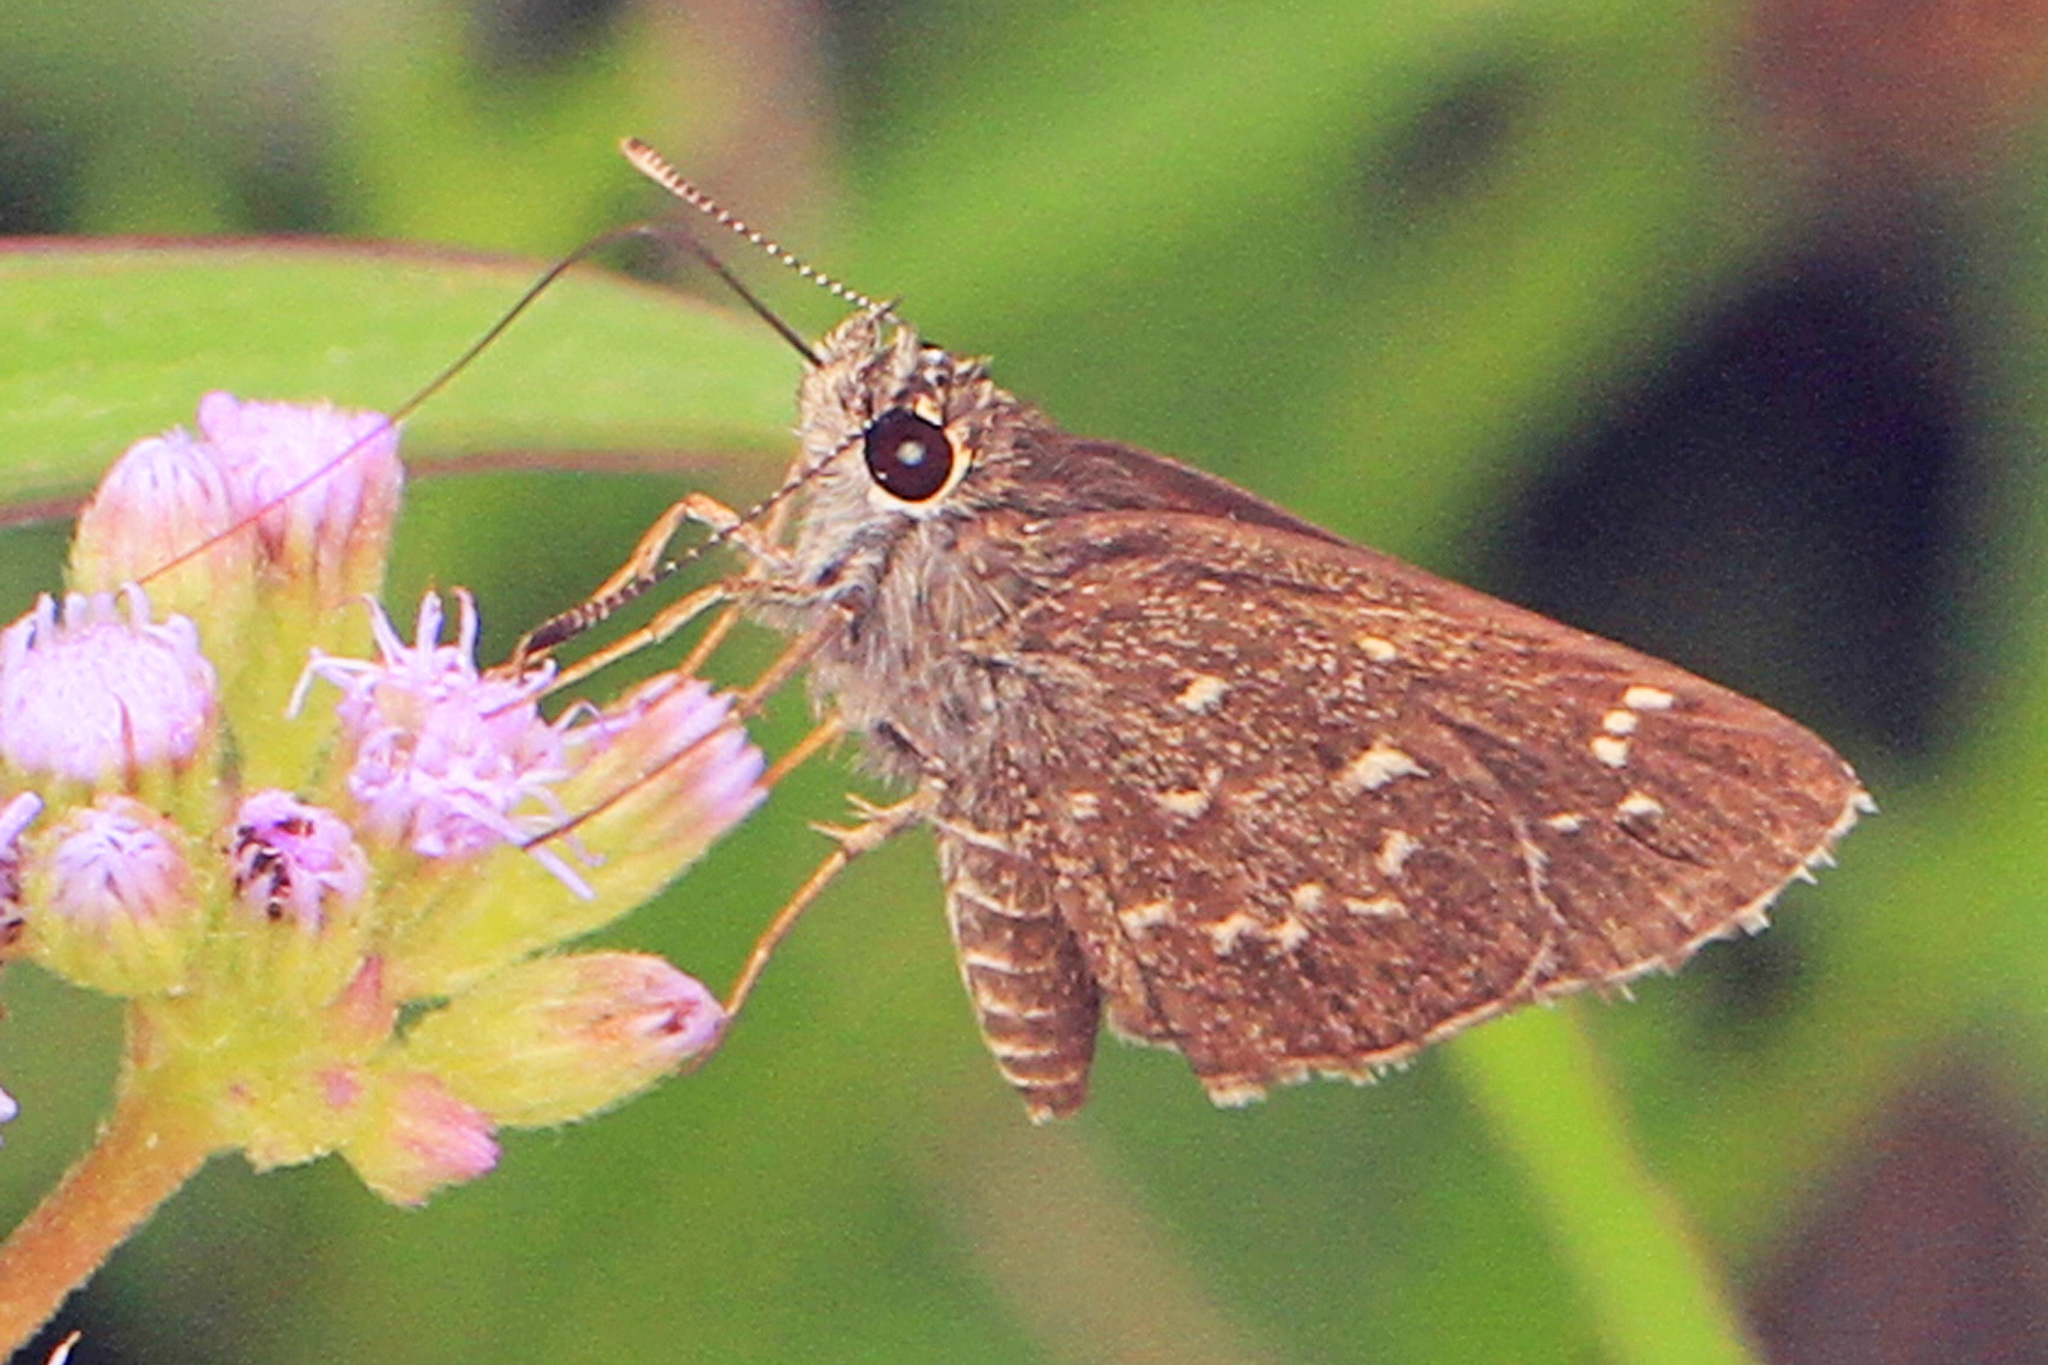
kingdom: Animalia
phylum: Arthropoda
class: Insecta
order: Lepidoptera
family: Hesperiidae
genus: Mastor
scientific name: Mastor celia
